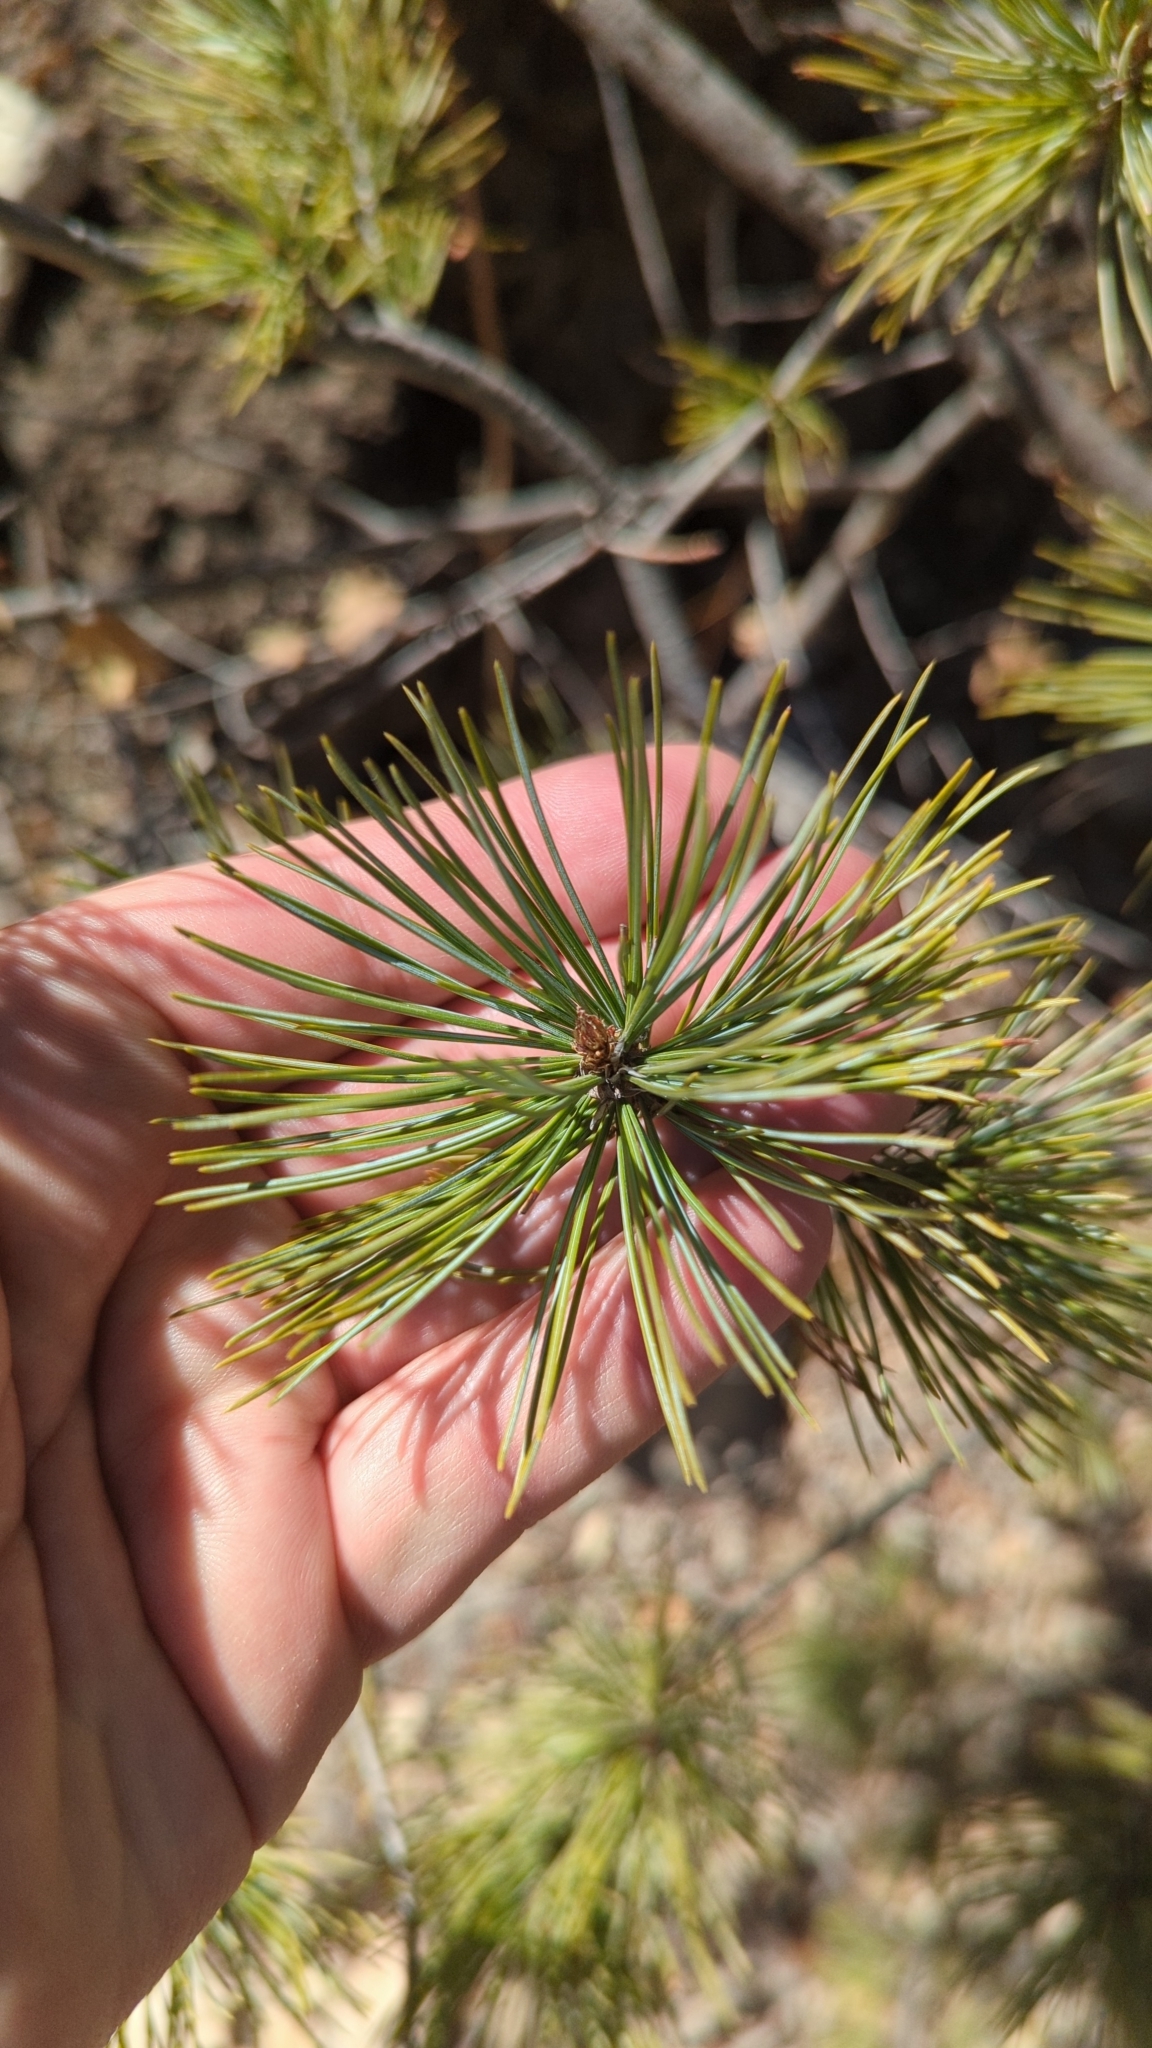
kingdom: Plantae
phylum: Tracheophyta
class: Pinopsida
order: Pinales
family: Pinaceae
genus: Pinus
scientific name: Pinus strobiformis
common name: Southwestern white pine
